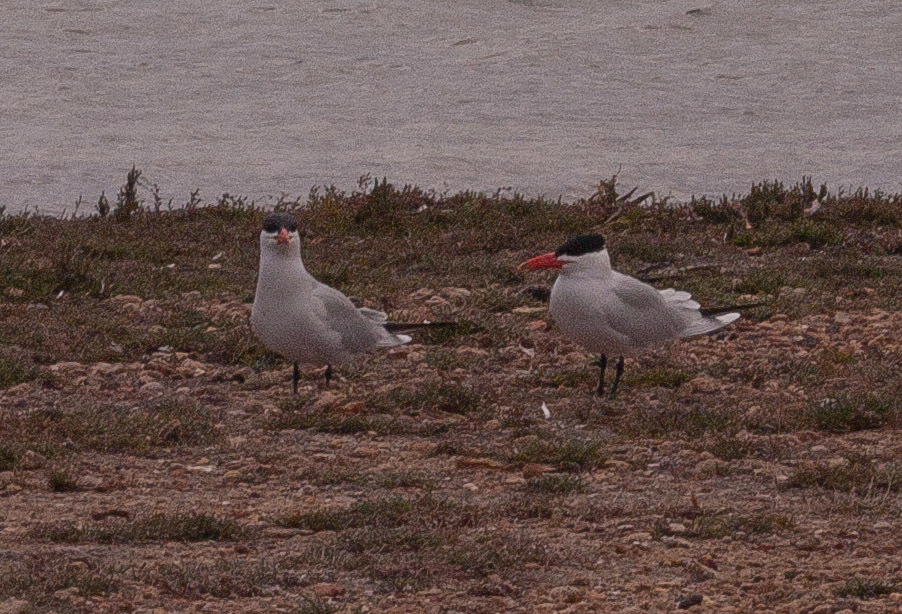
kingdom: Animalia
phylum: Chordata
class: Aves
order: Charadriiformes
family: Laridae
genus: Hydroprogne
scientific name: Hydroprogne caspia
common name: Caspian tern
